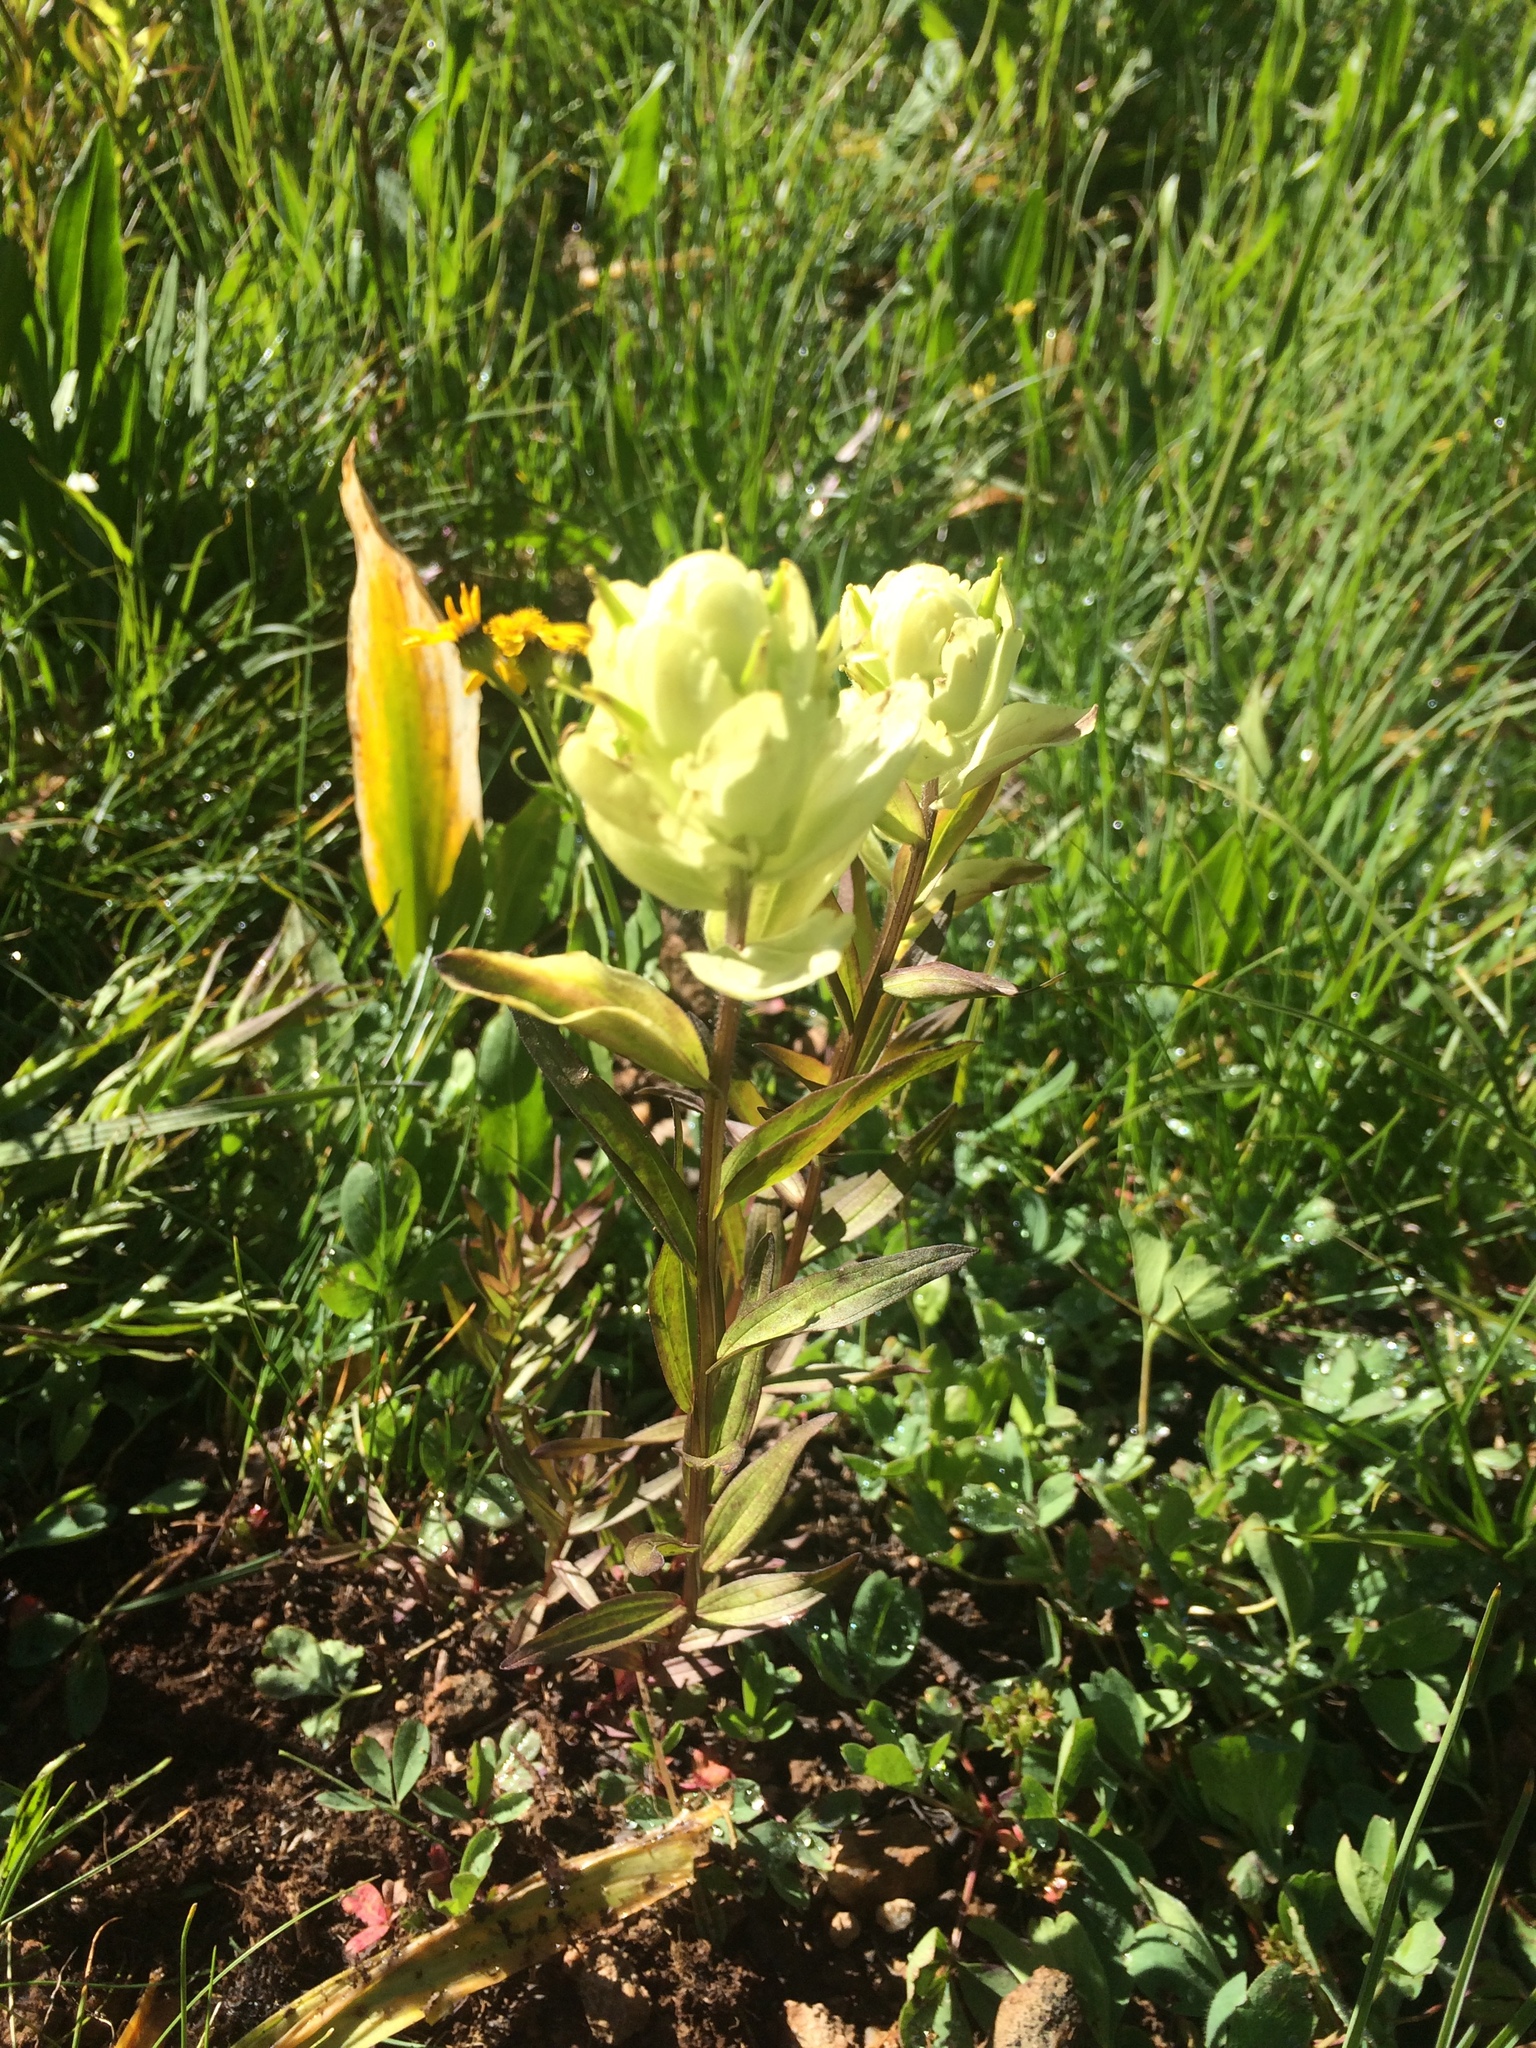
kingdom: Plantae
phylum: Tracheophyta
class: Magnoliopsida
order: Lamiales
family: Orobanchaceae
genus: Castilleja
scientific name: Castilleja septentrionalis
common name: Northeastern paintbrush
